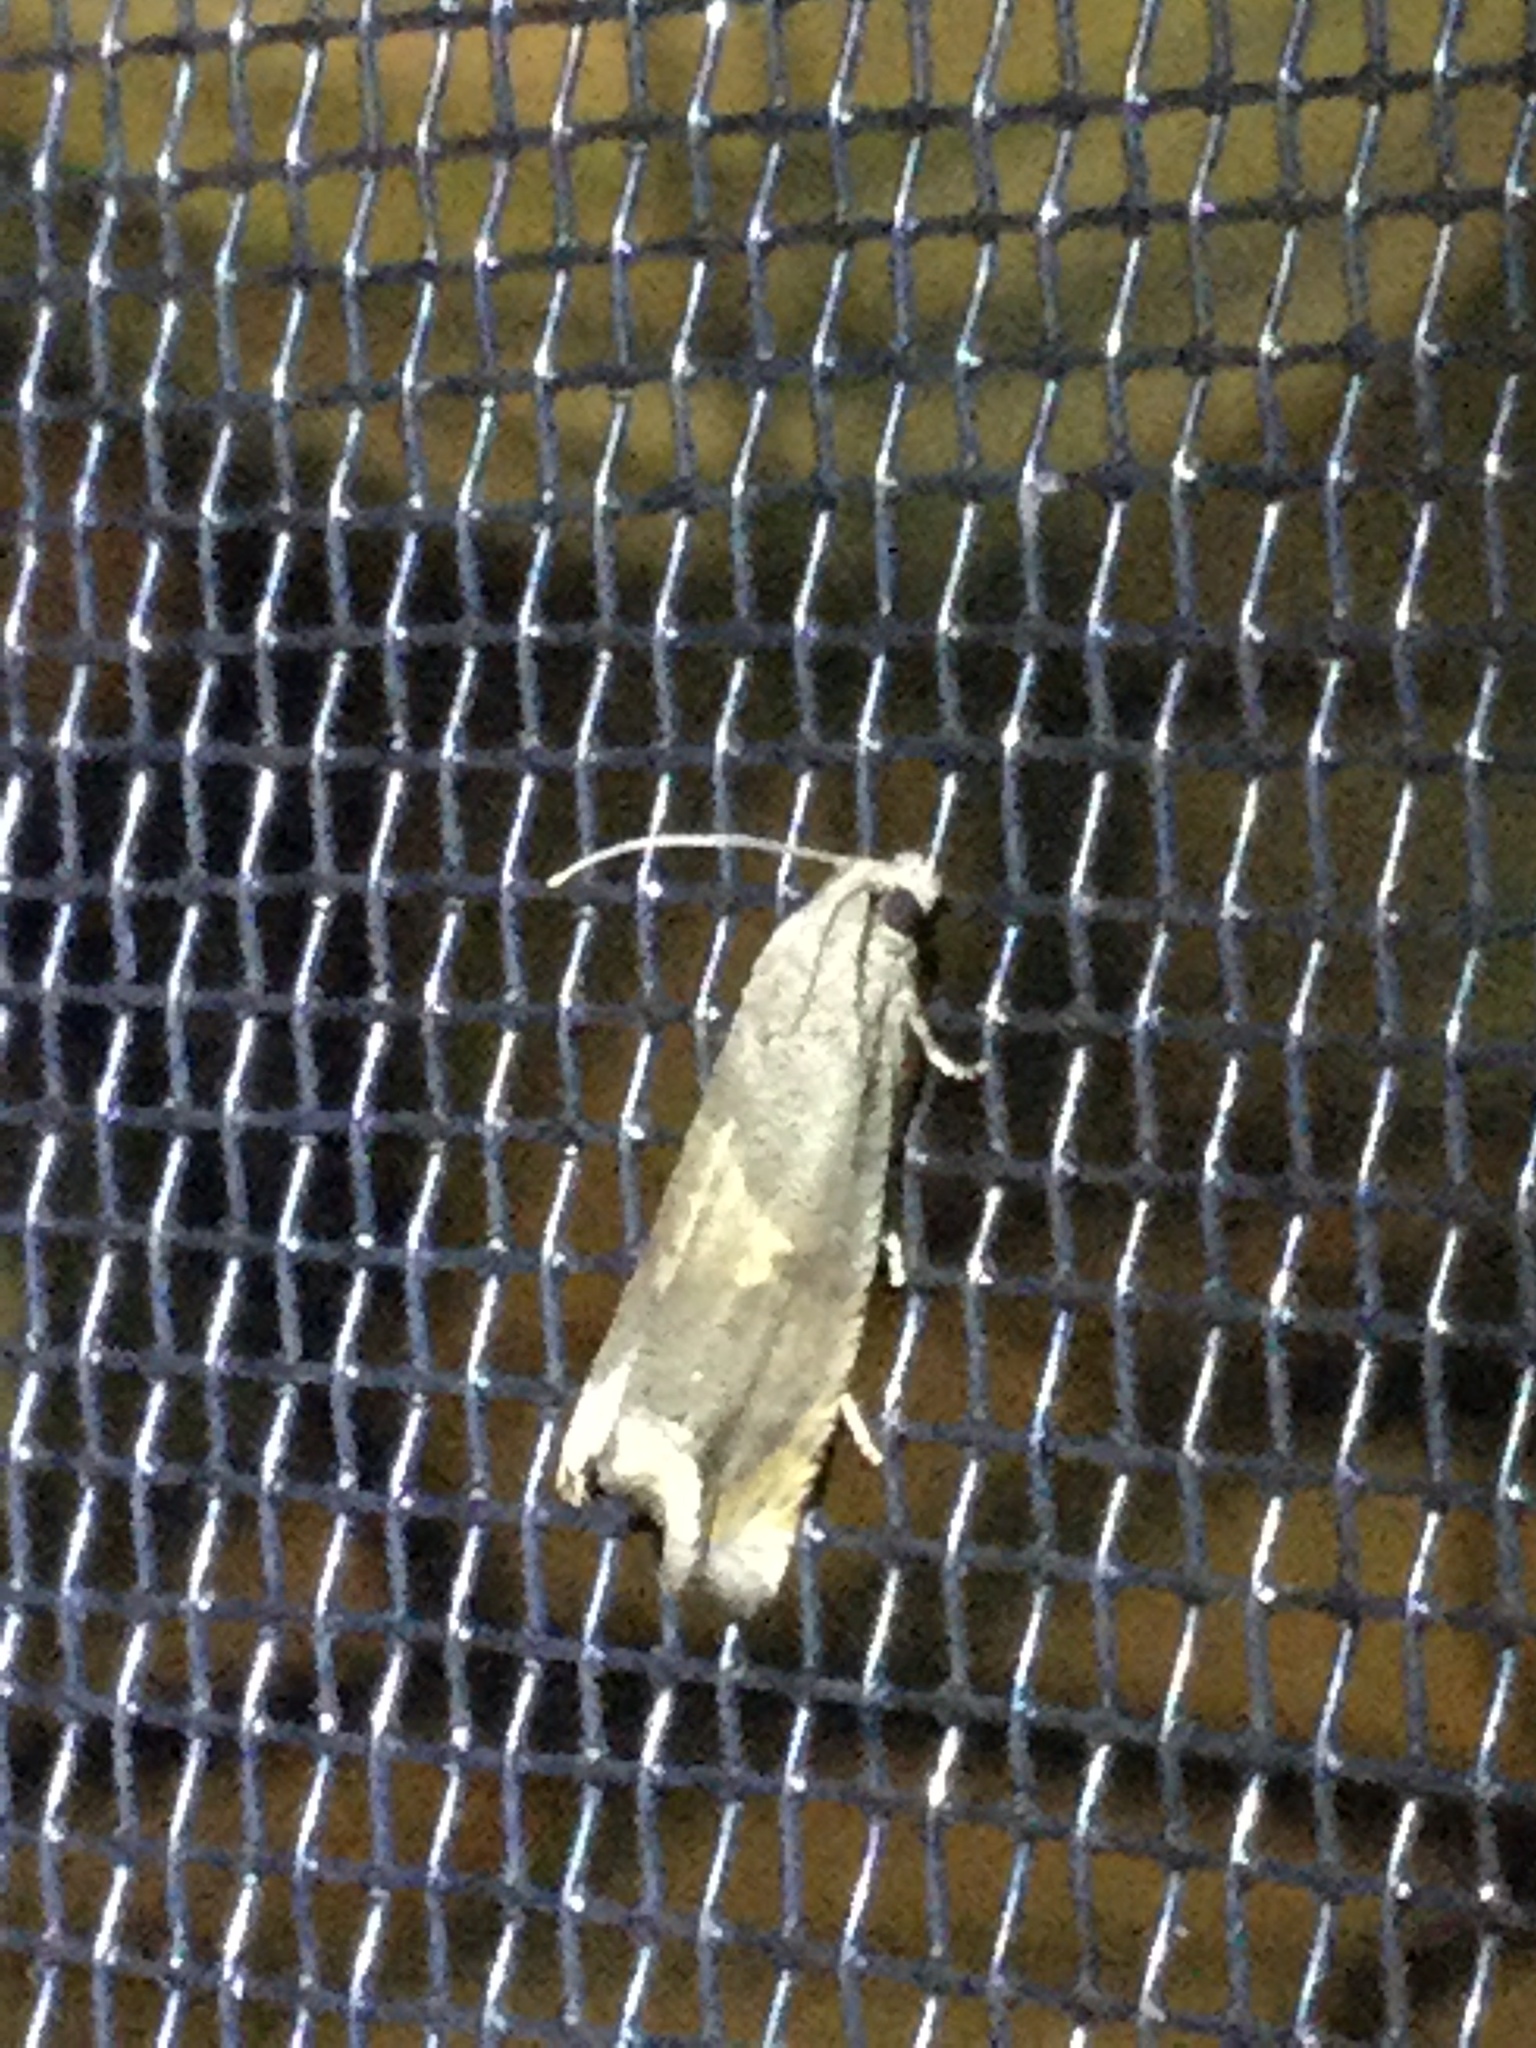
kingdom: Animalia
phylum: Arthropoda
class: Insecta
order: Lepidoptera
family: Tortricidae
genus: Epiblema
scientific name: Epiblema strenuana
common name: Ragweed borer moth
